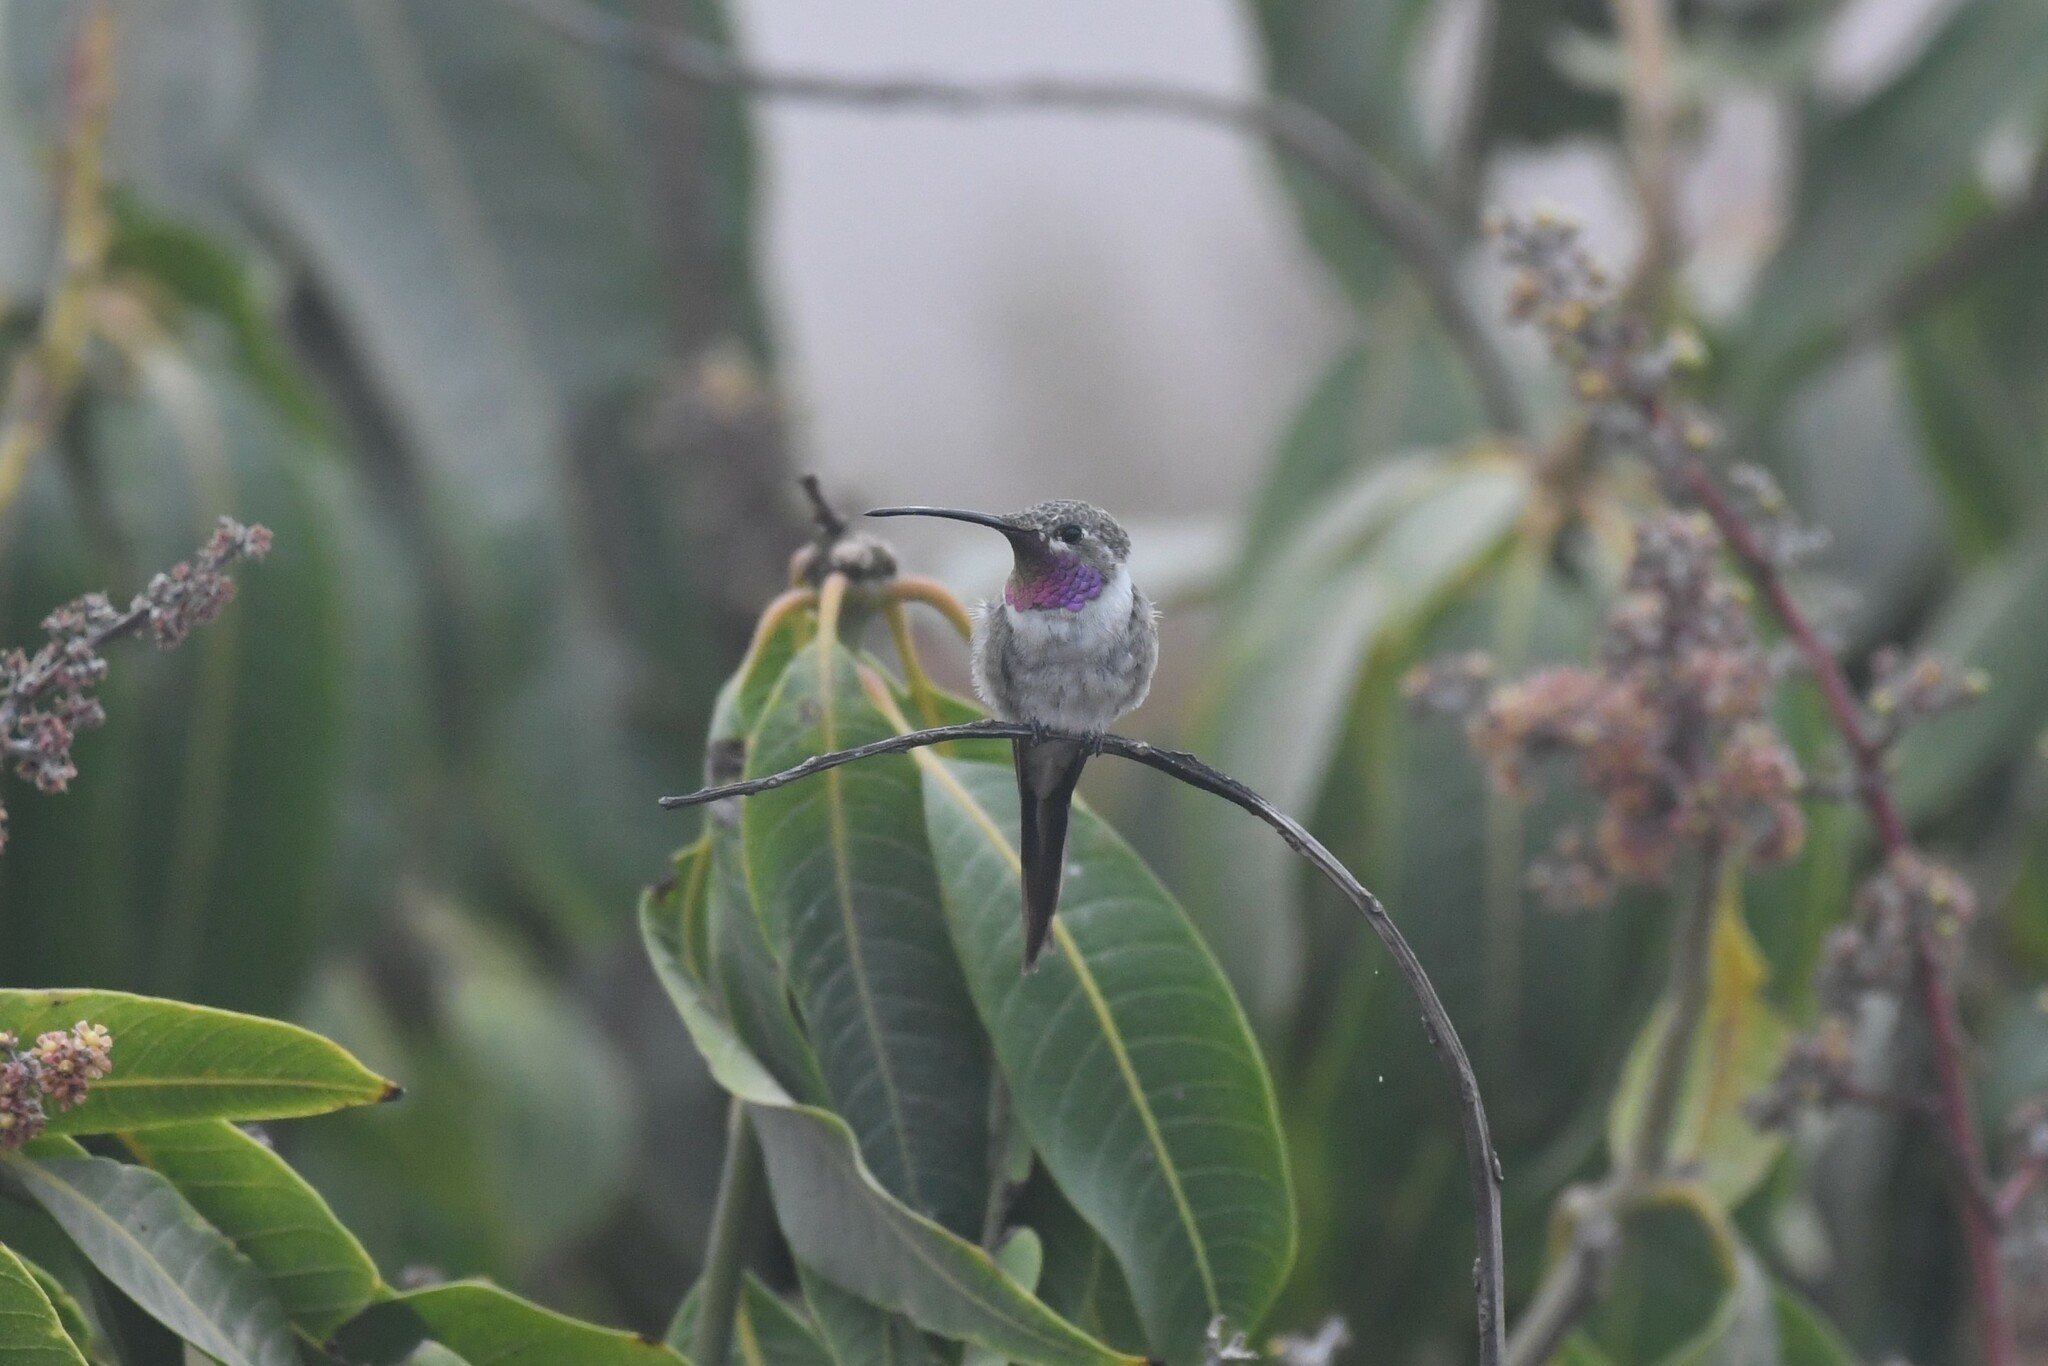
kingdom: Animalia
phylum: Chordata
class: Aves
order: Apodiformes
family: Trochilidae
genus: Rhodopis
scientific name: Rhodopis vesper
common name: Oasis hummingbird
